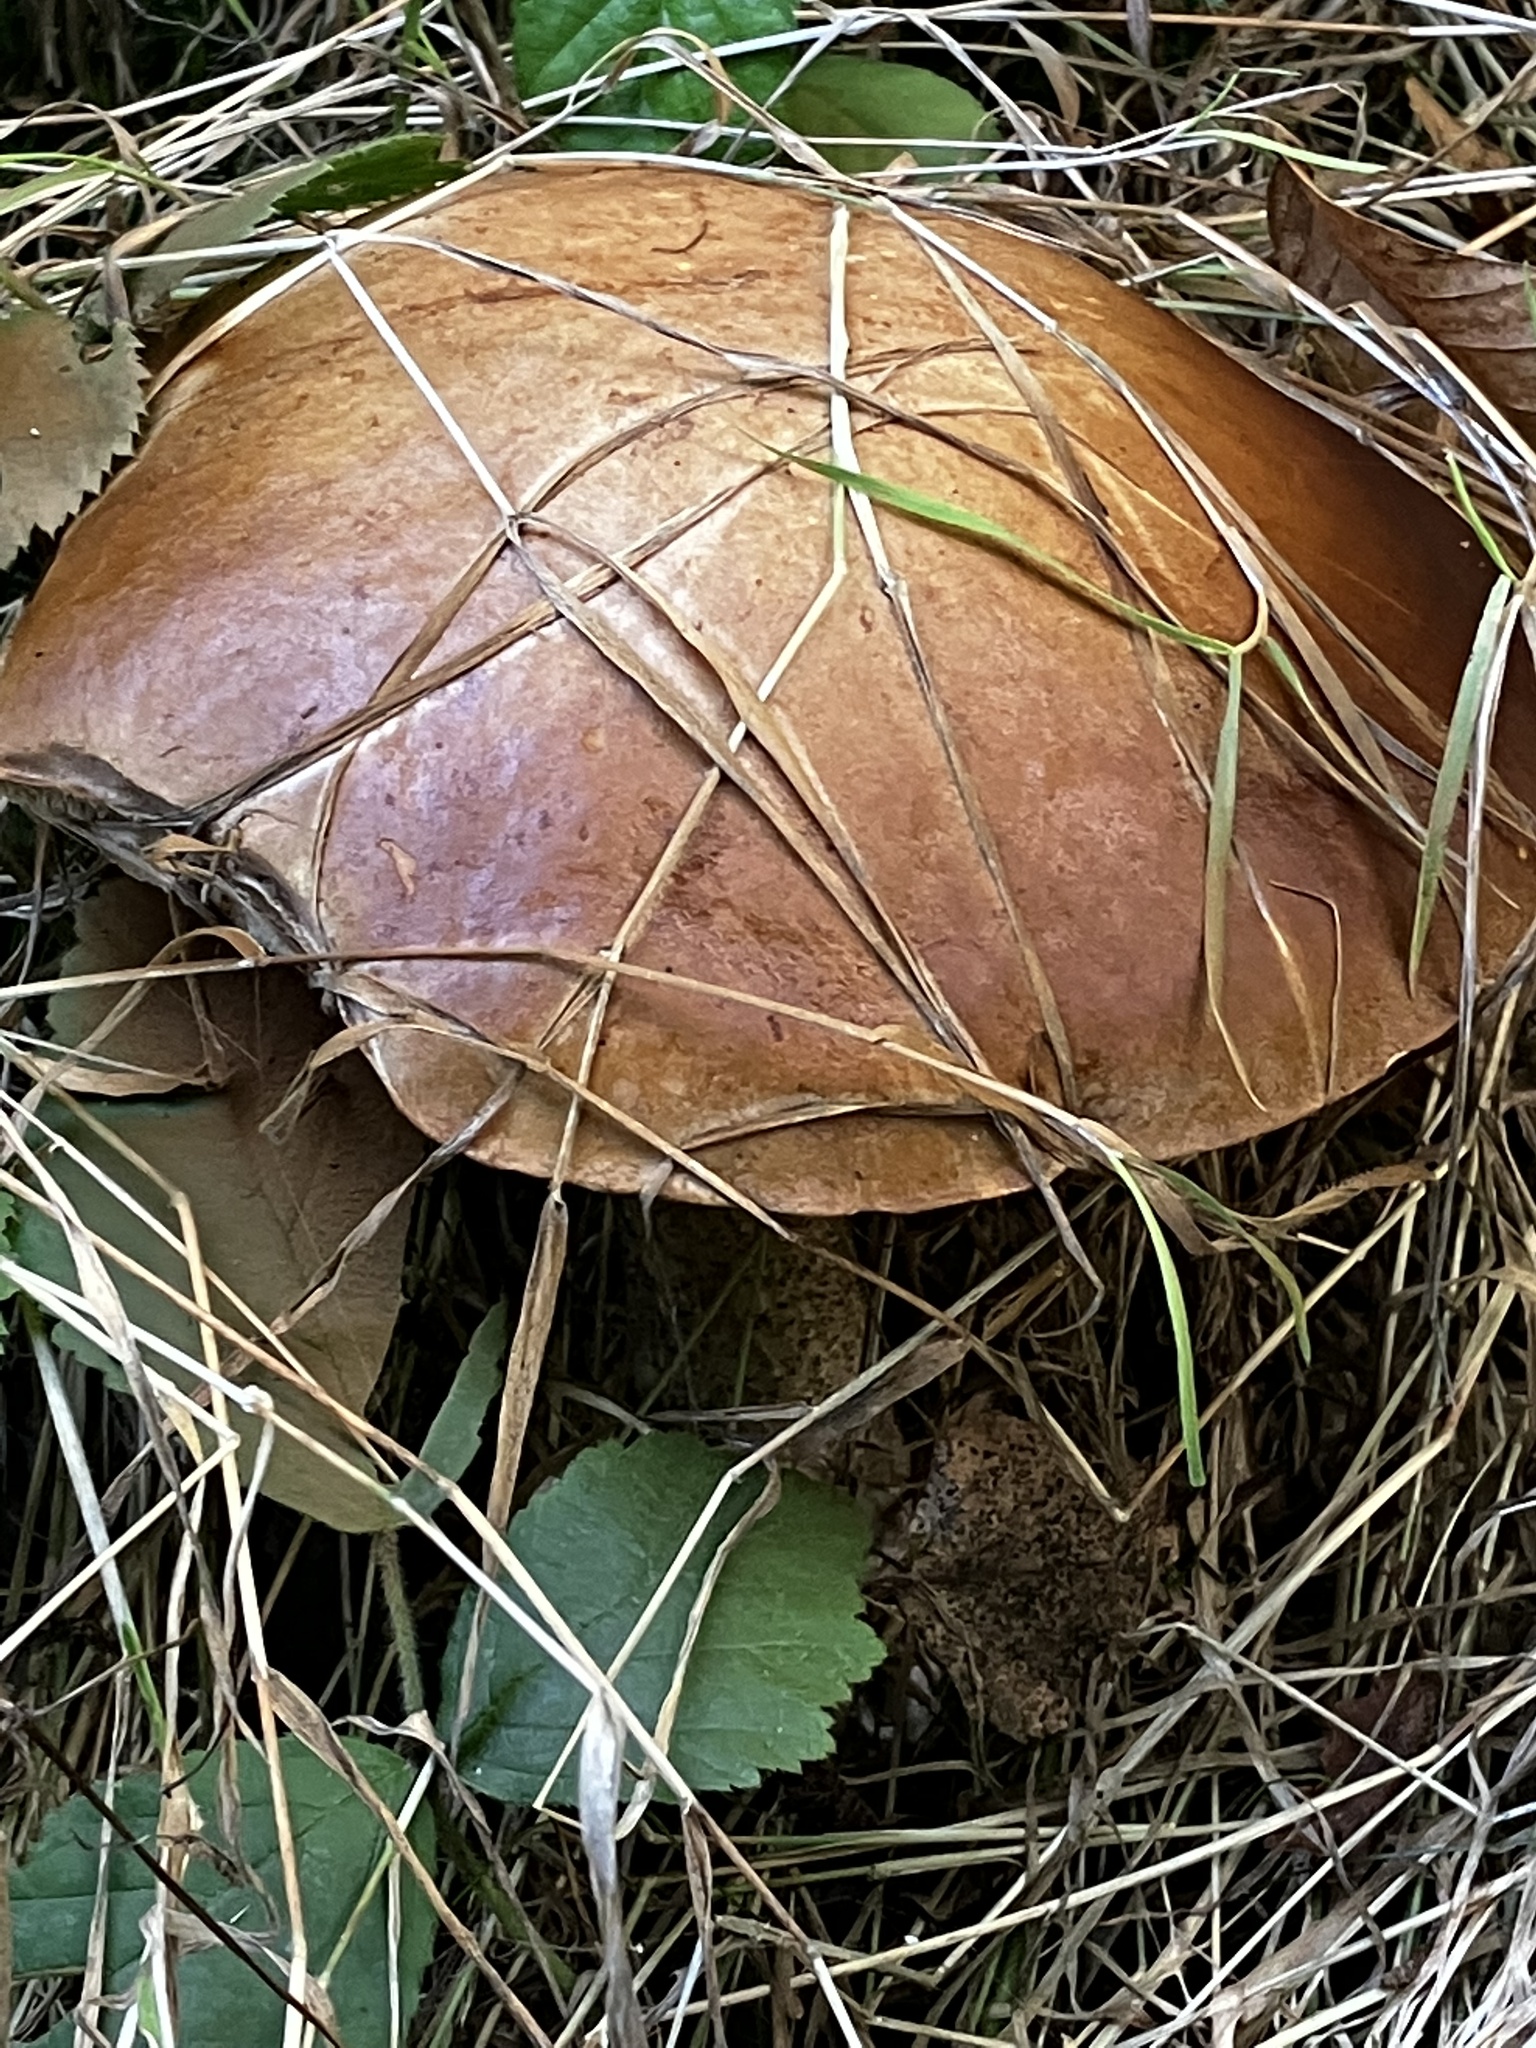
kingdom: Fungi
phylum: Basidiomycota
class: Agaricomycetes
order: Boletales
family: Boletaceae
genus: Leccinum
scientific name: Leccinum scabrum
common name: Blushing bolete
